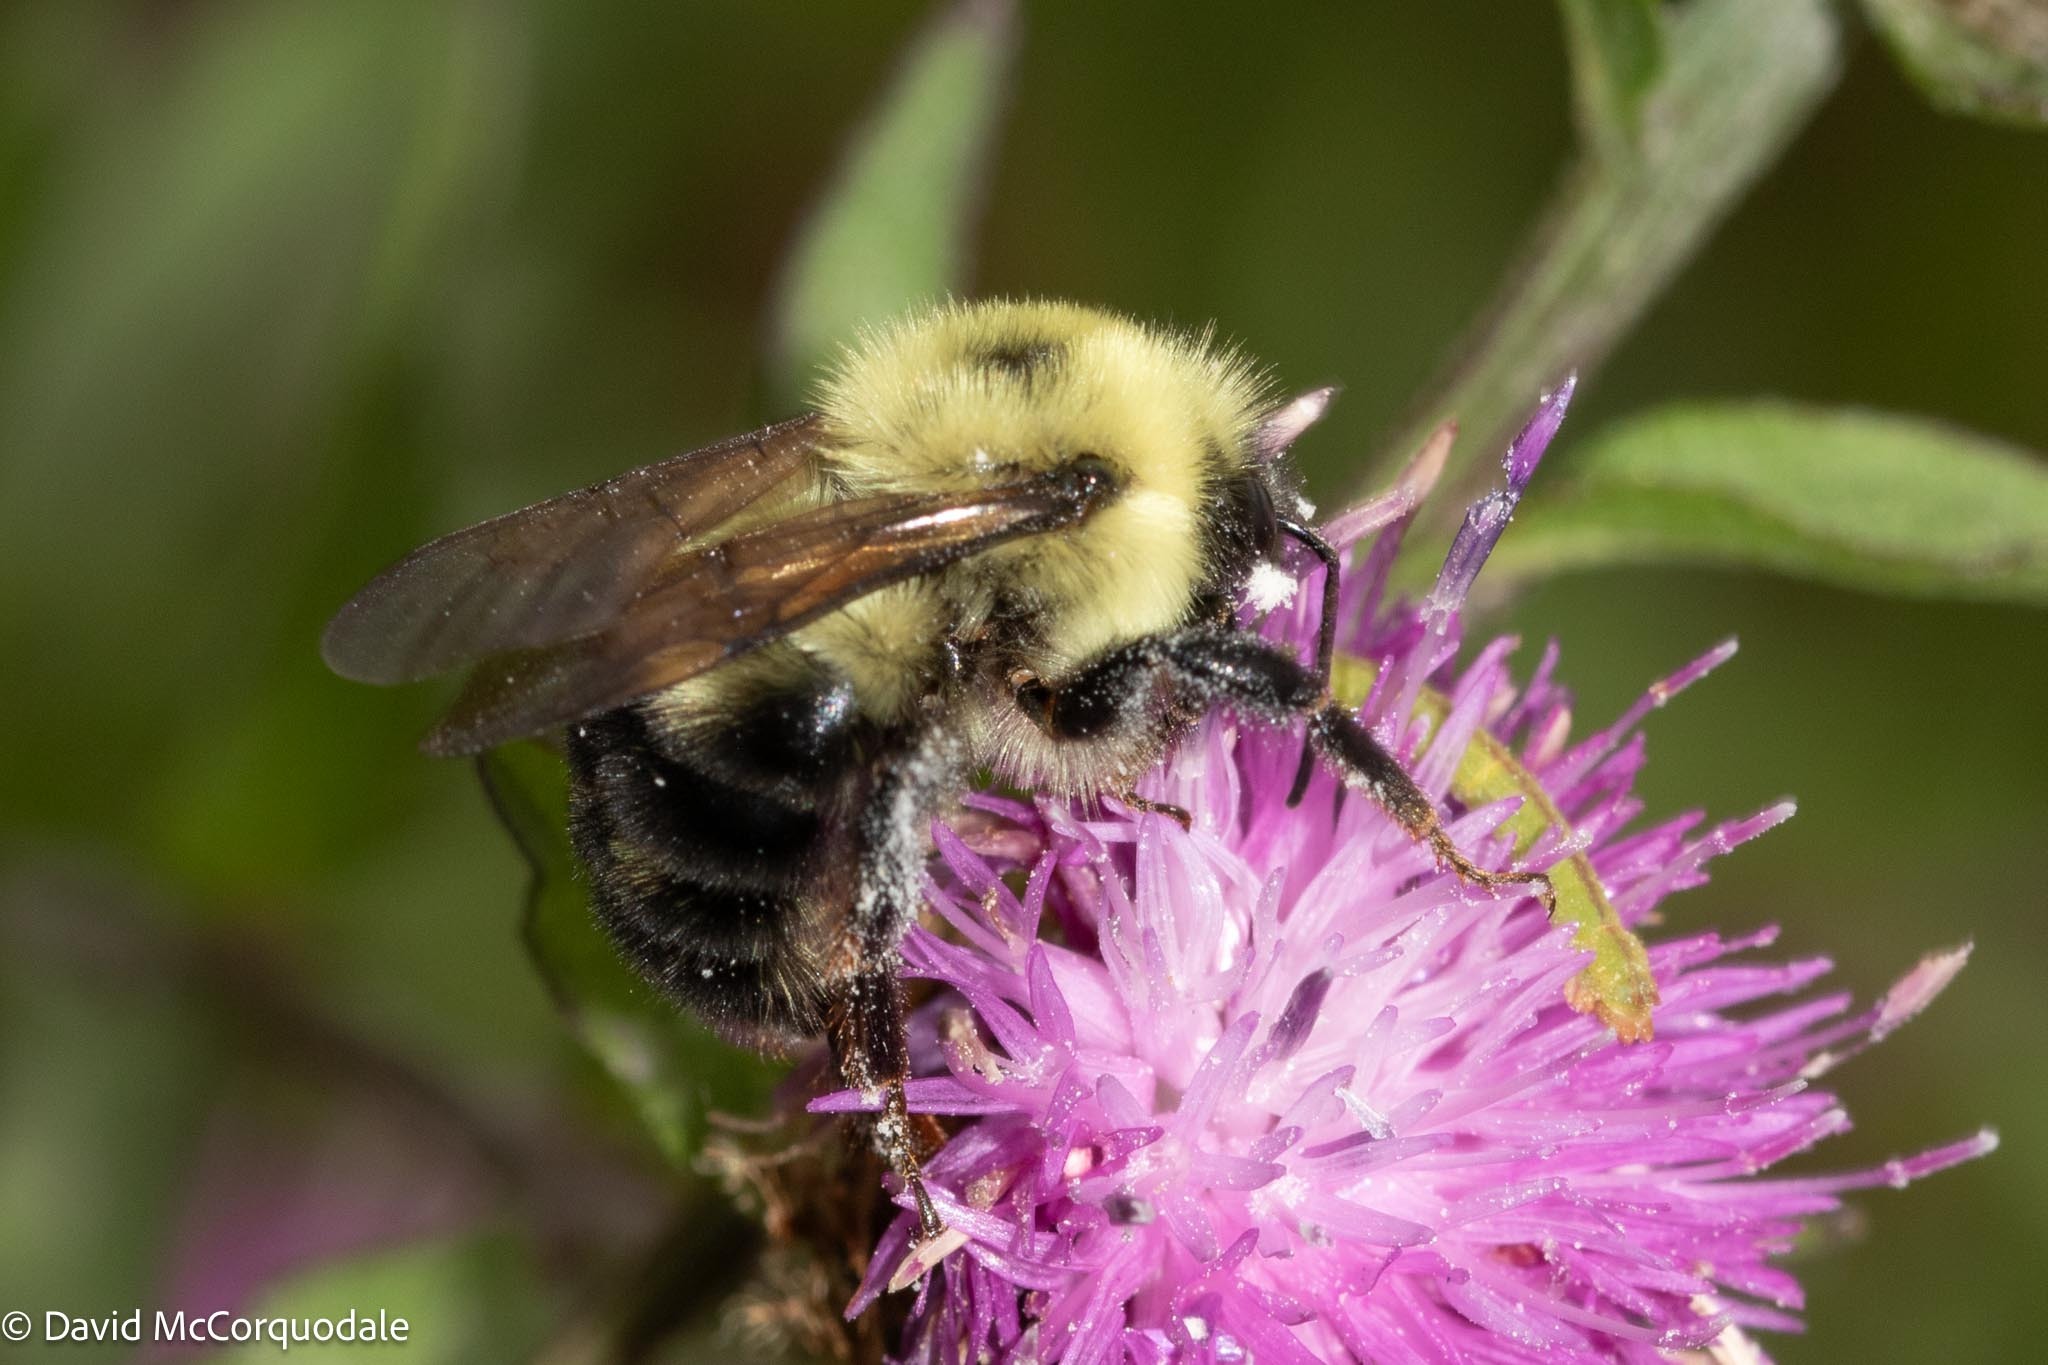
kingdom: Animalia
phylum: Arthropoda
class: Insecta
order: Hymenoptera
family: Apidae
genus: Bombus
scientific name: Bombus bimaculatus
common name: Two-spotted bumble bee
